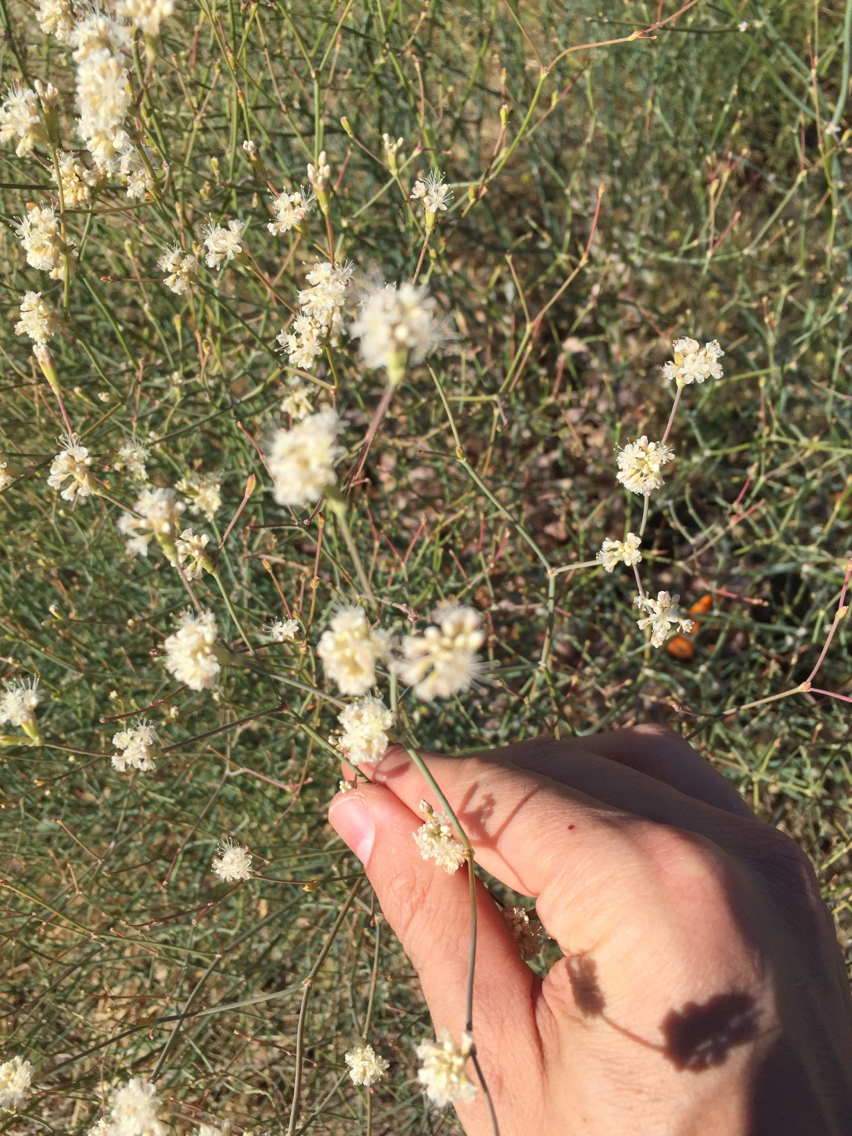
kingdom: Plantae
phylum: Tracheophyta
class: Magnoliopsida
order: Caryophyllales
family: Polygonaceae
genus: Eriogonum
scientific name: Eriogonum nudum
